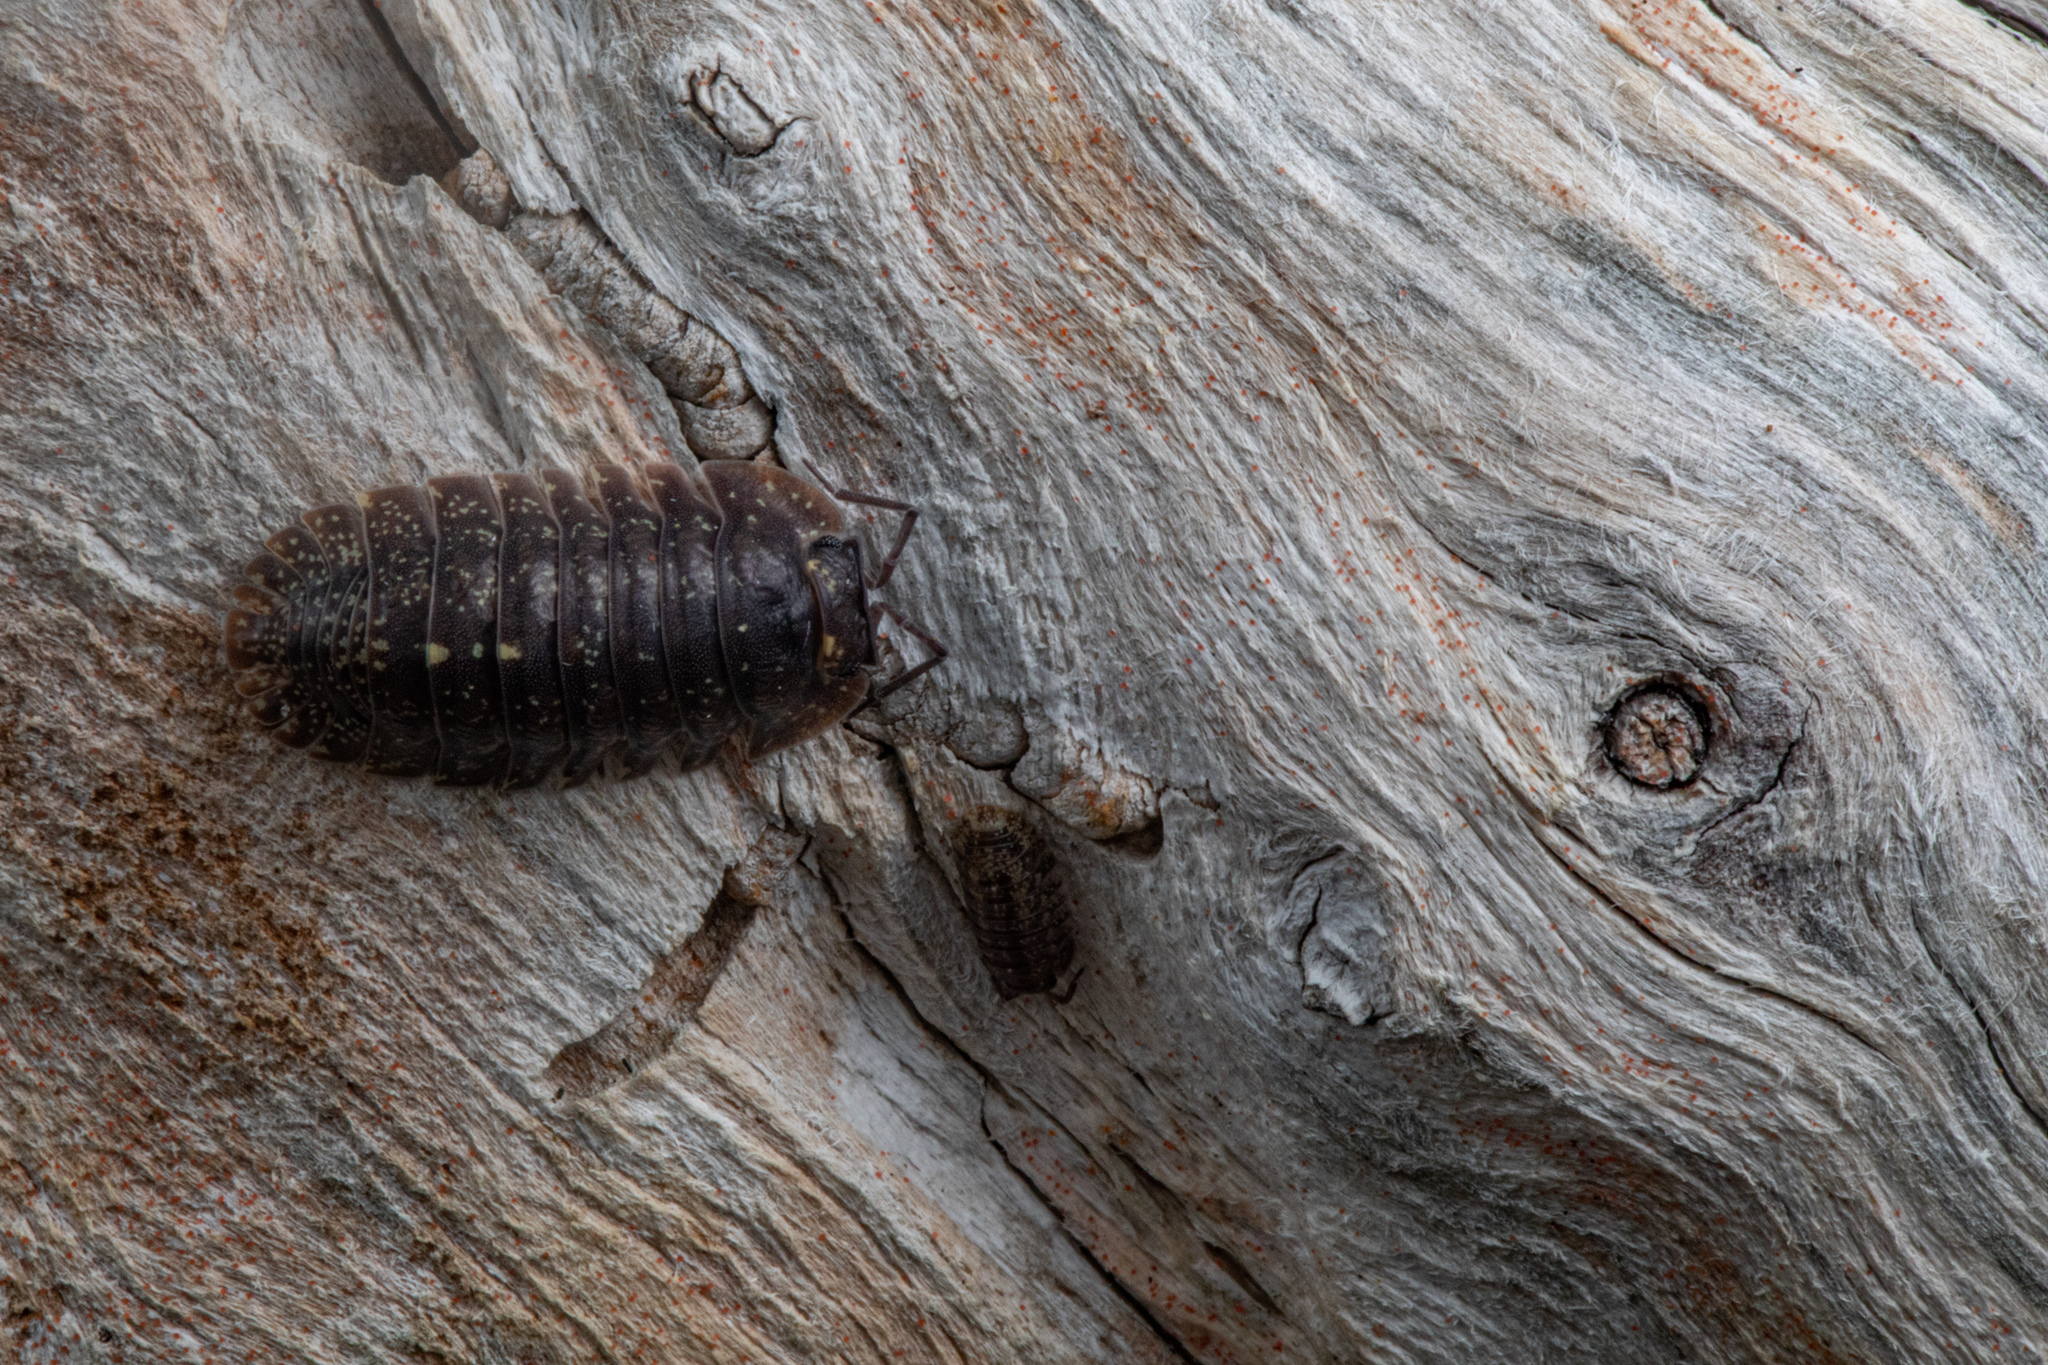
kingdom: Animalia
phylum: Arthropoda
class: Malacostraca
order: Isopoda
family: Armadillidae
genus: Cubaris
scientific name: Cubaris tarangensis
